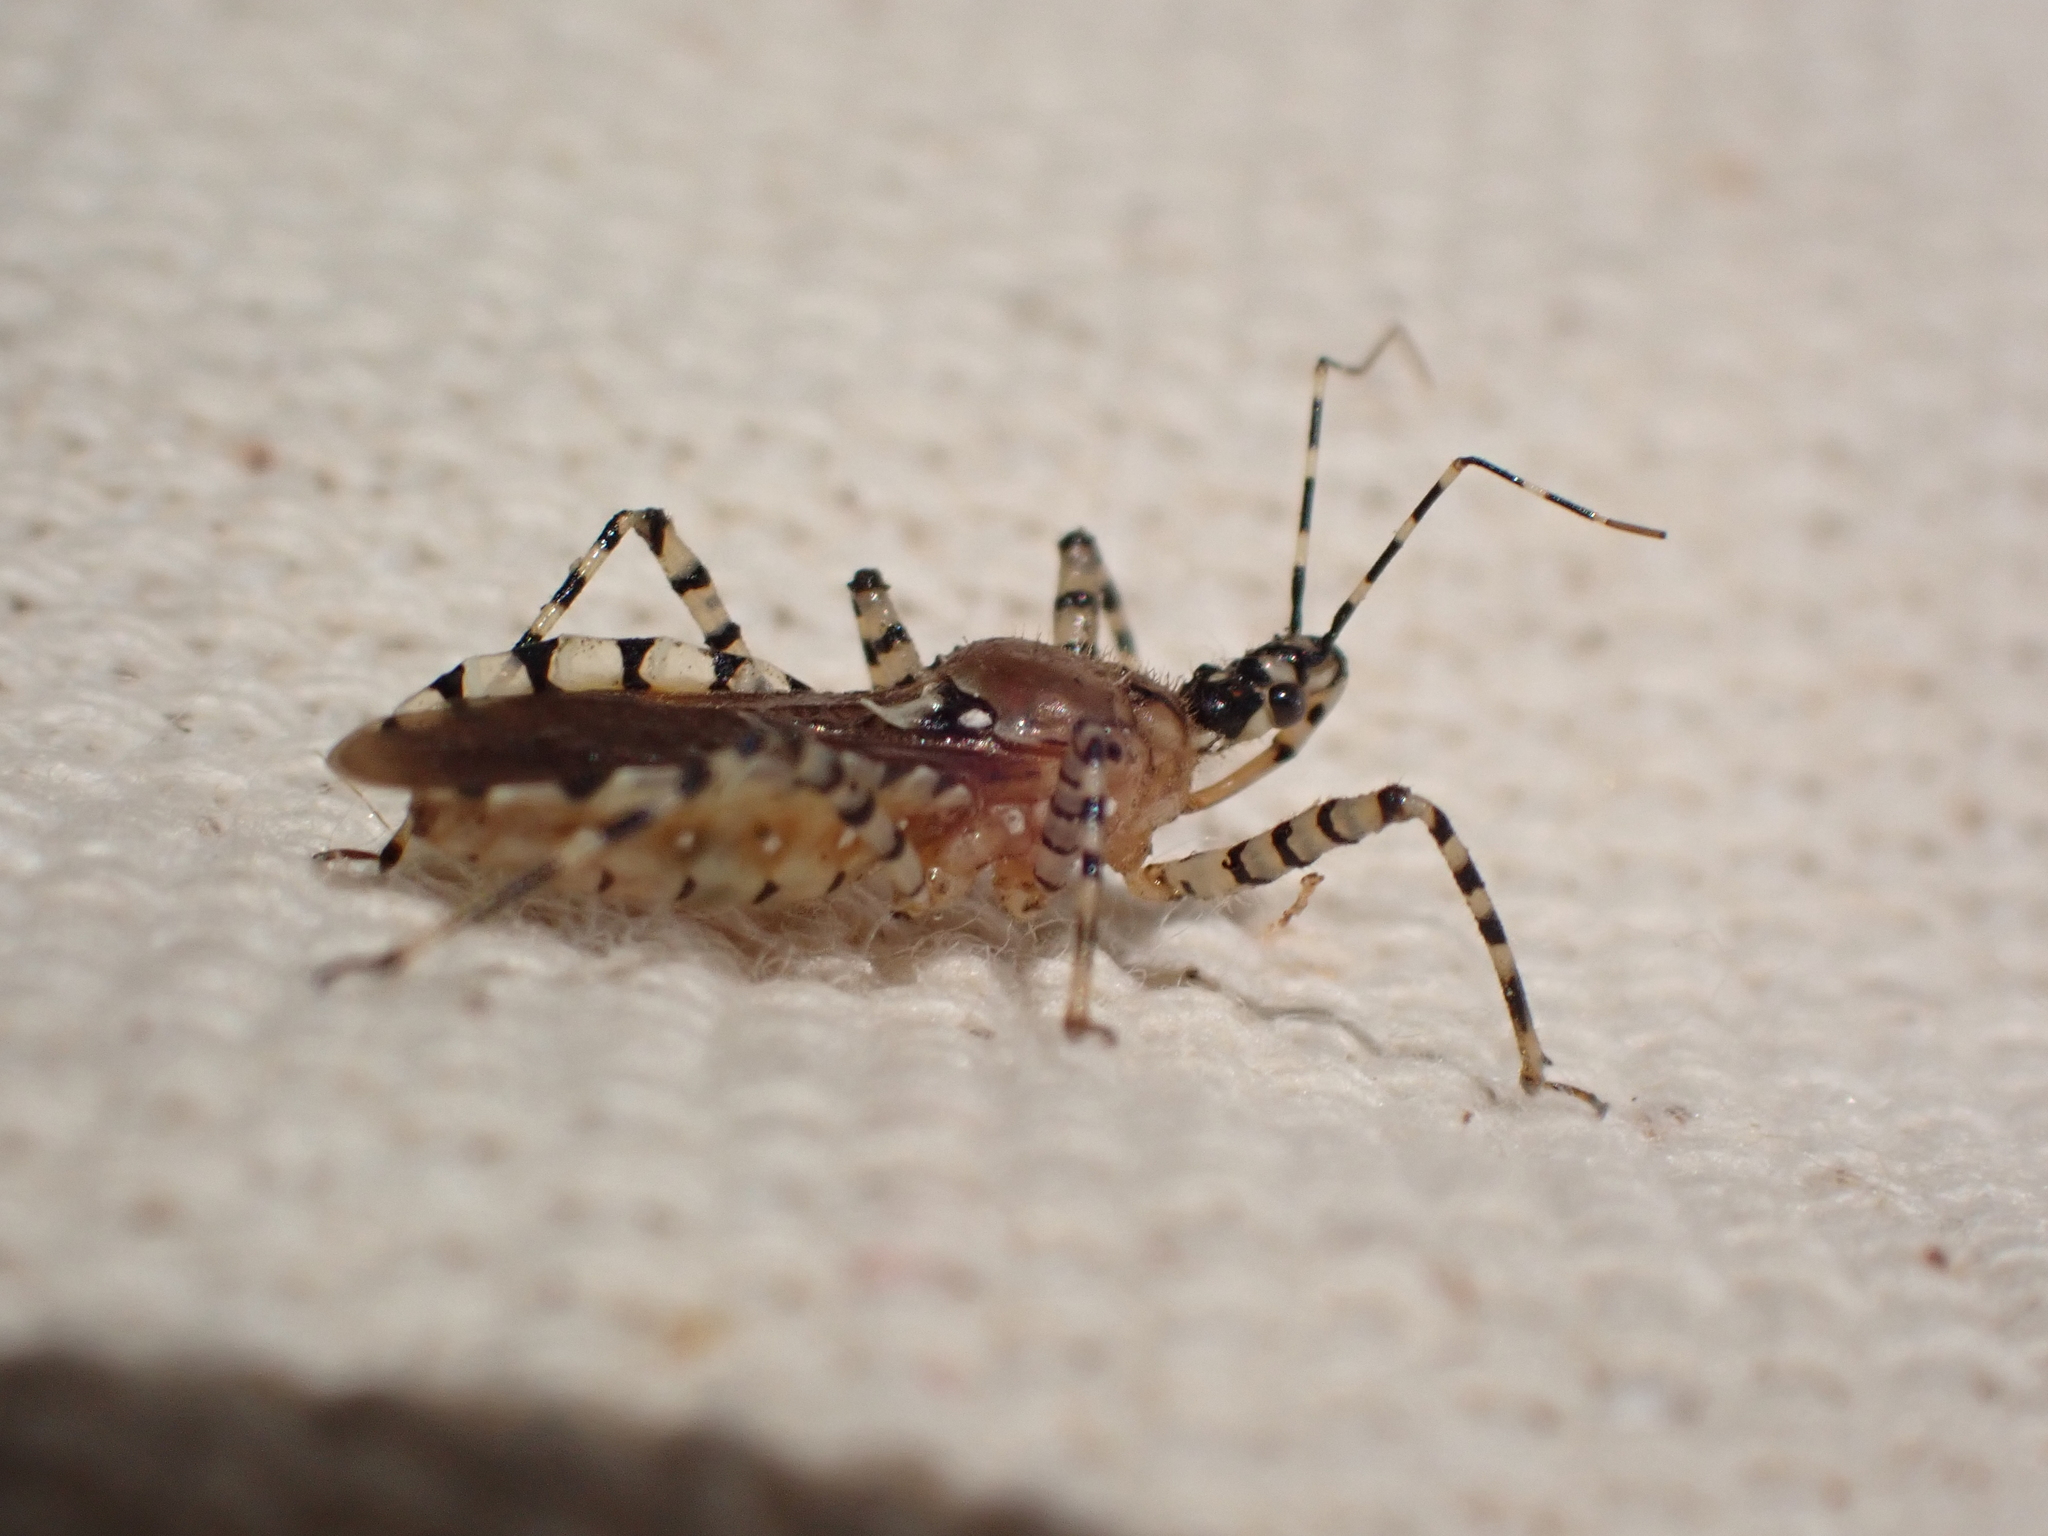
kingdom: Animalia
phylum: Arthropoda
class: Insecta
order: Hemiptera
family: Reduviidae
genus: Pselliopus
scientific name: Pselliopus cinctus
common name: Ringed assassin bug
